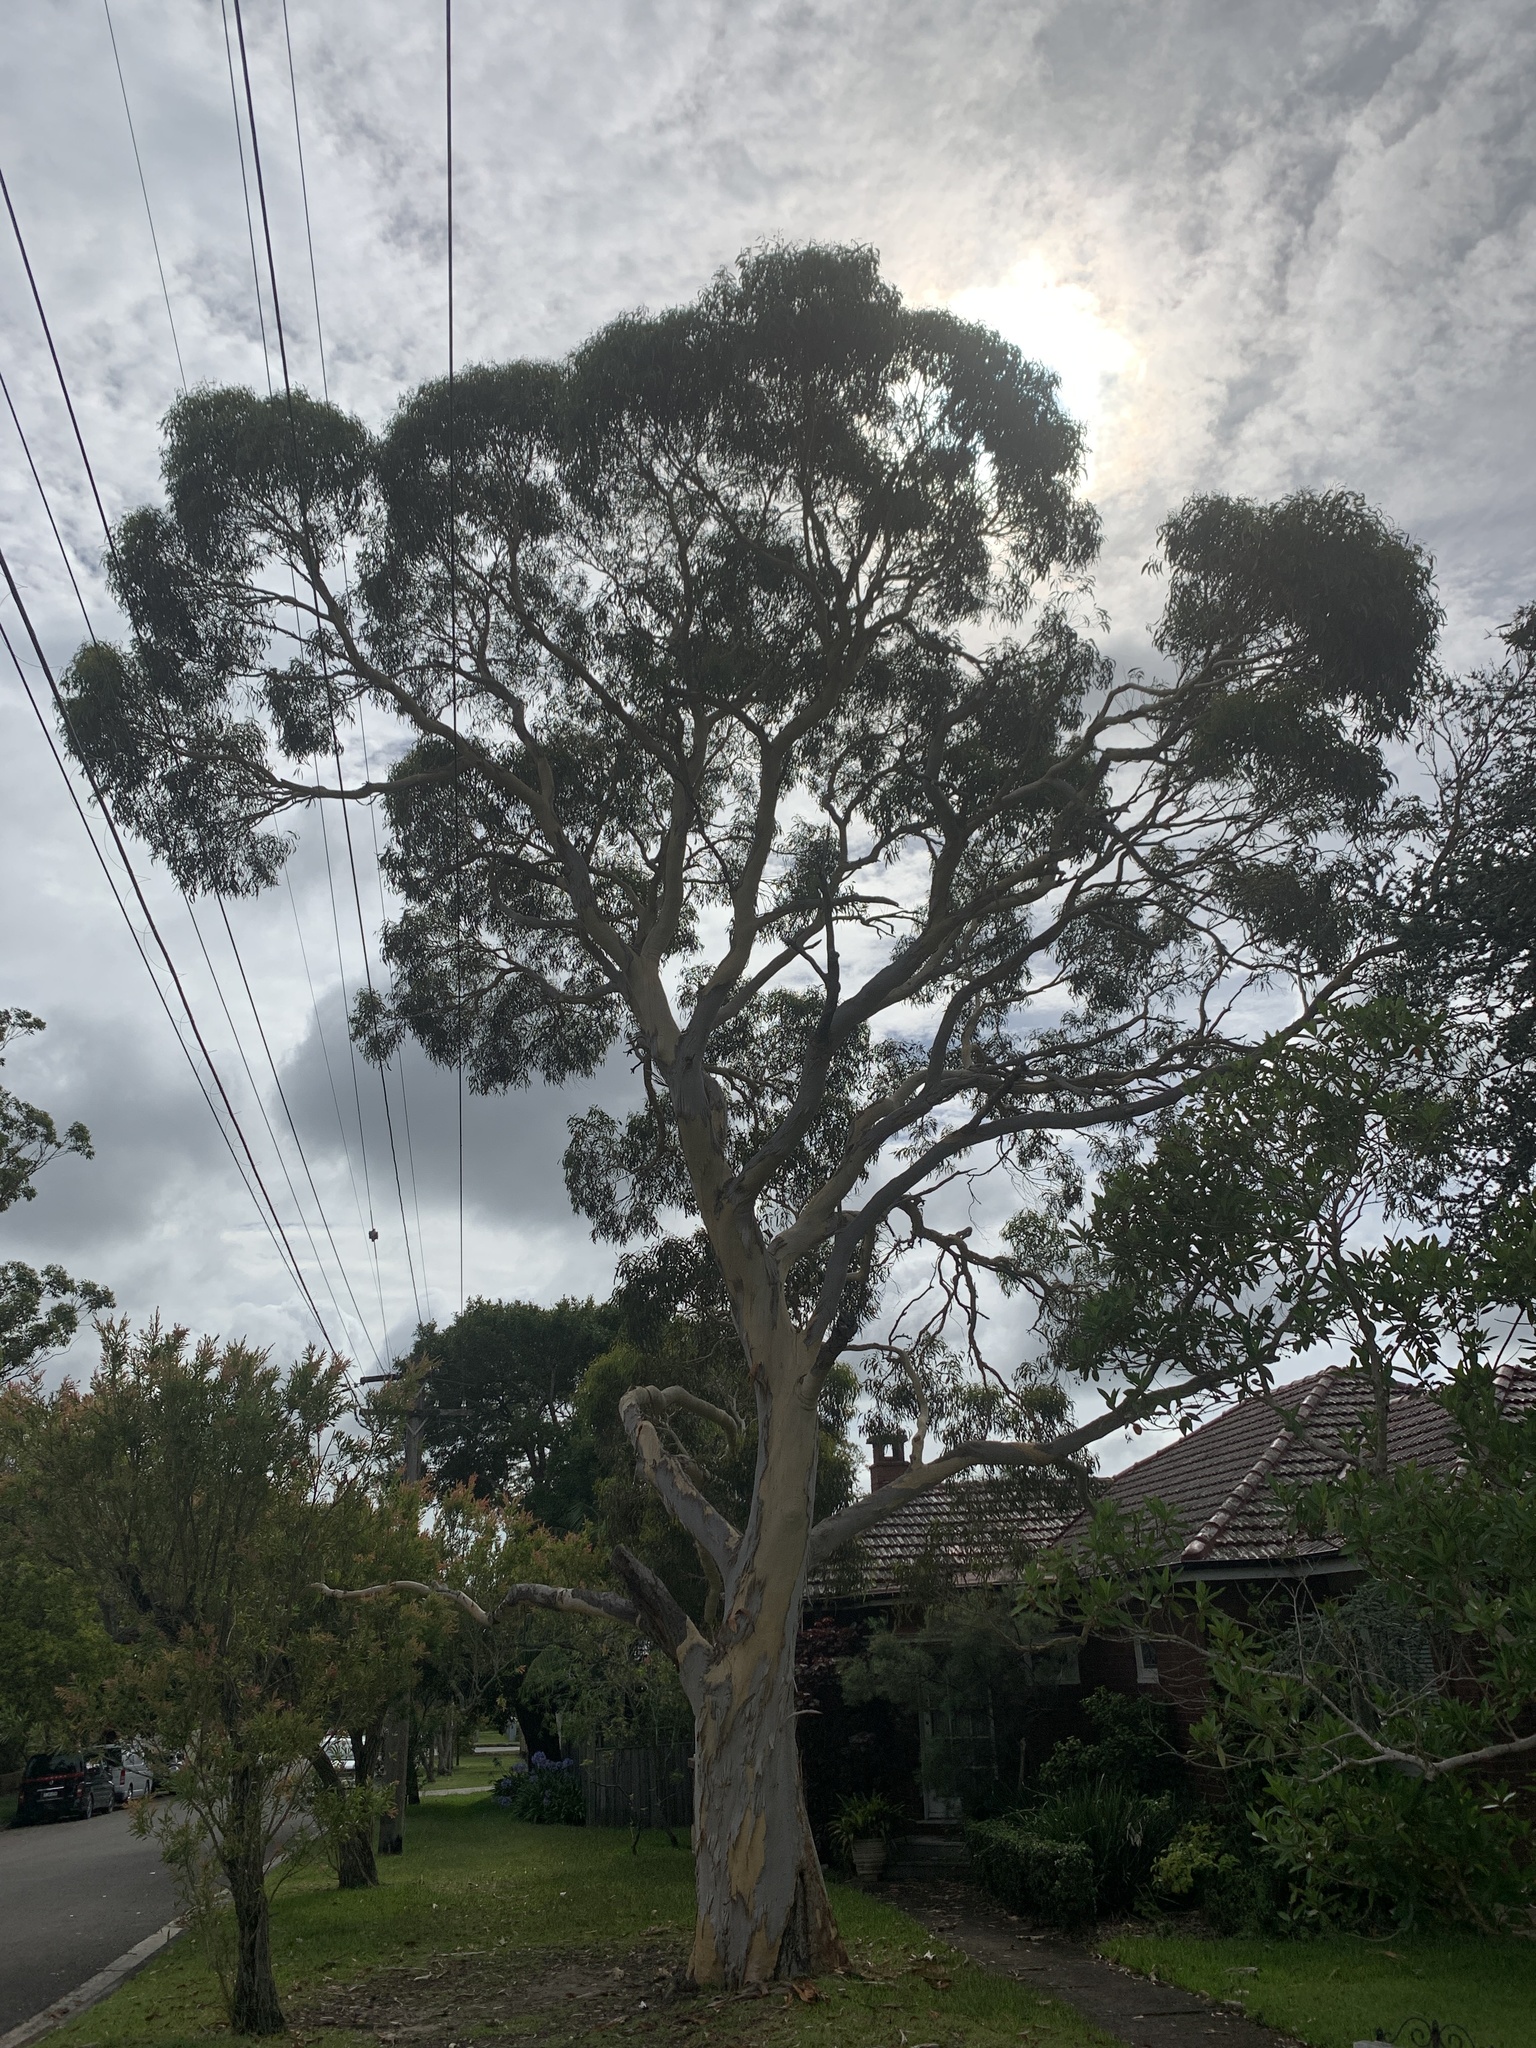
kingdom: Plantae
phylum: Tracheophyta
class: Magnoliopsida
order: Myrtales
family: Myrtaceae
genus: Eucalyptus
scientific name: Eucalyptus haemastoma
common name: Scribbly-gum
